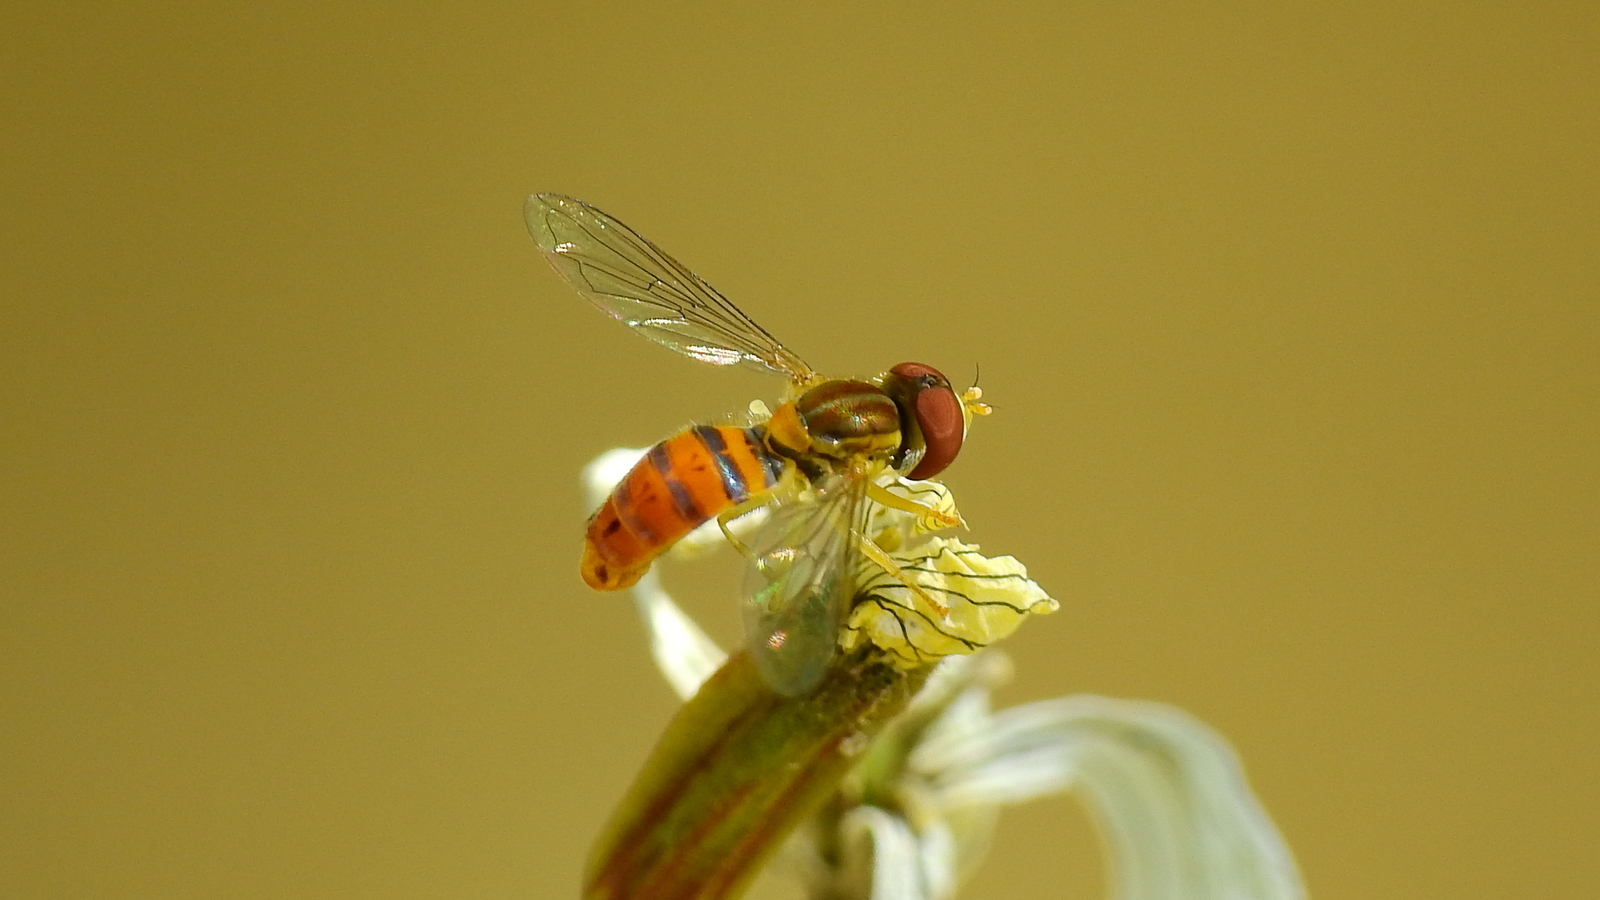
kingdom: Animalia
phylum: Arthropoda
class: Insecta
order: Diptera
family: Syrphidae
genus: Toxomerus
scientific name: Toxomerus
